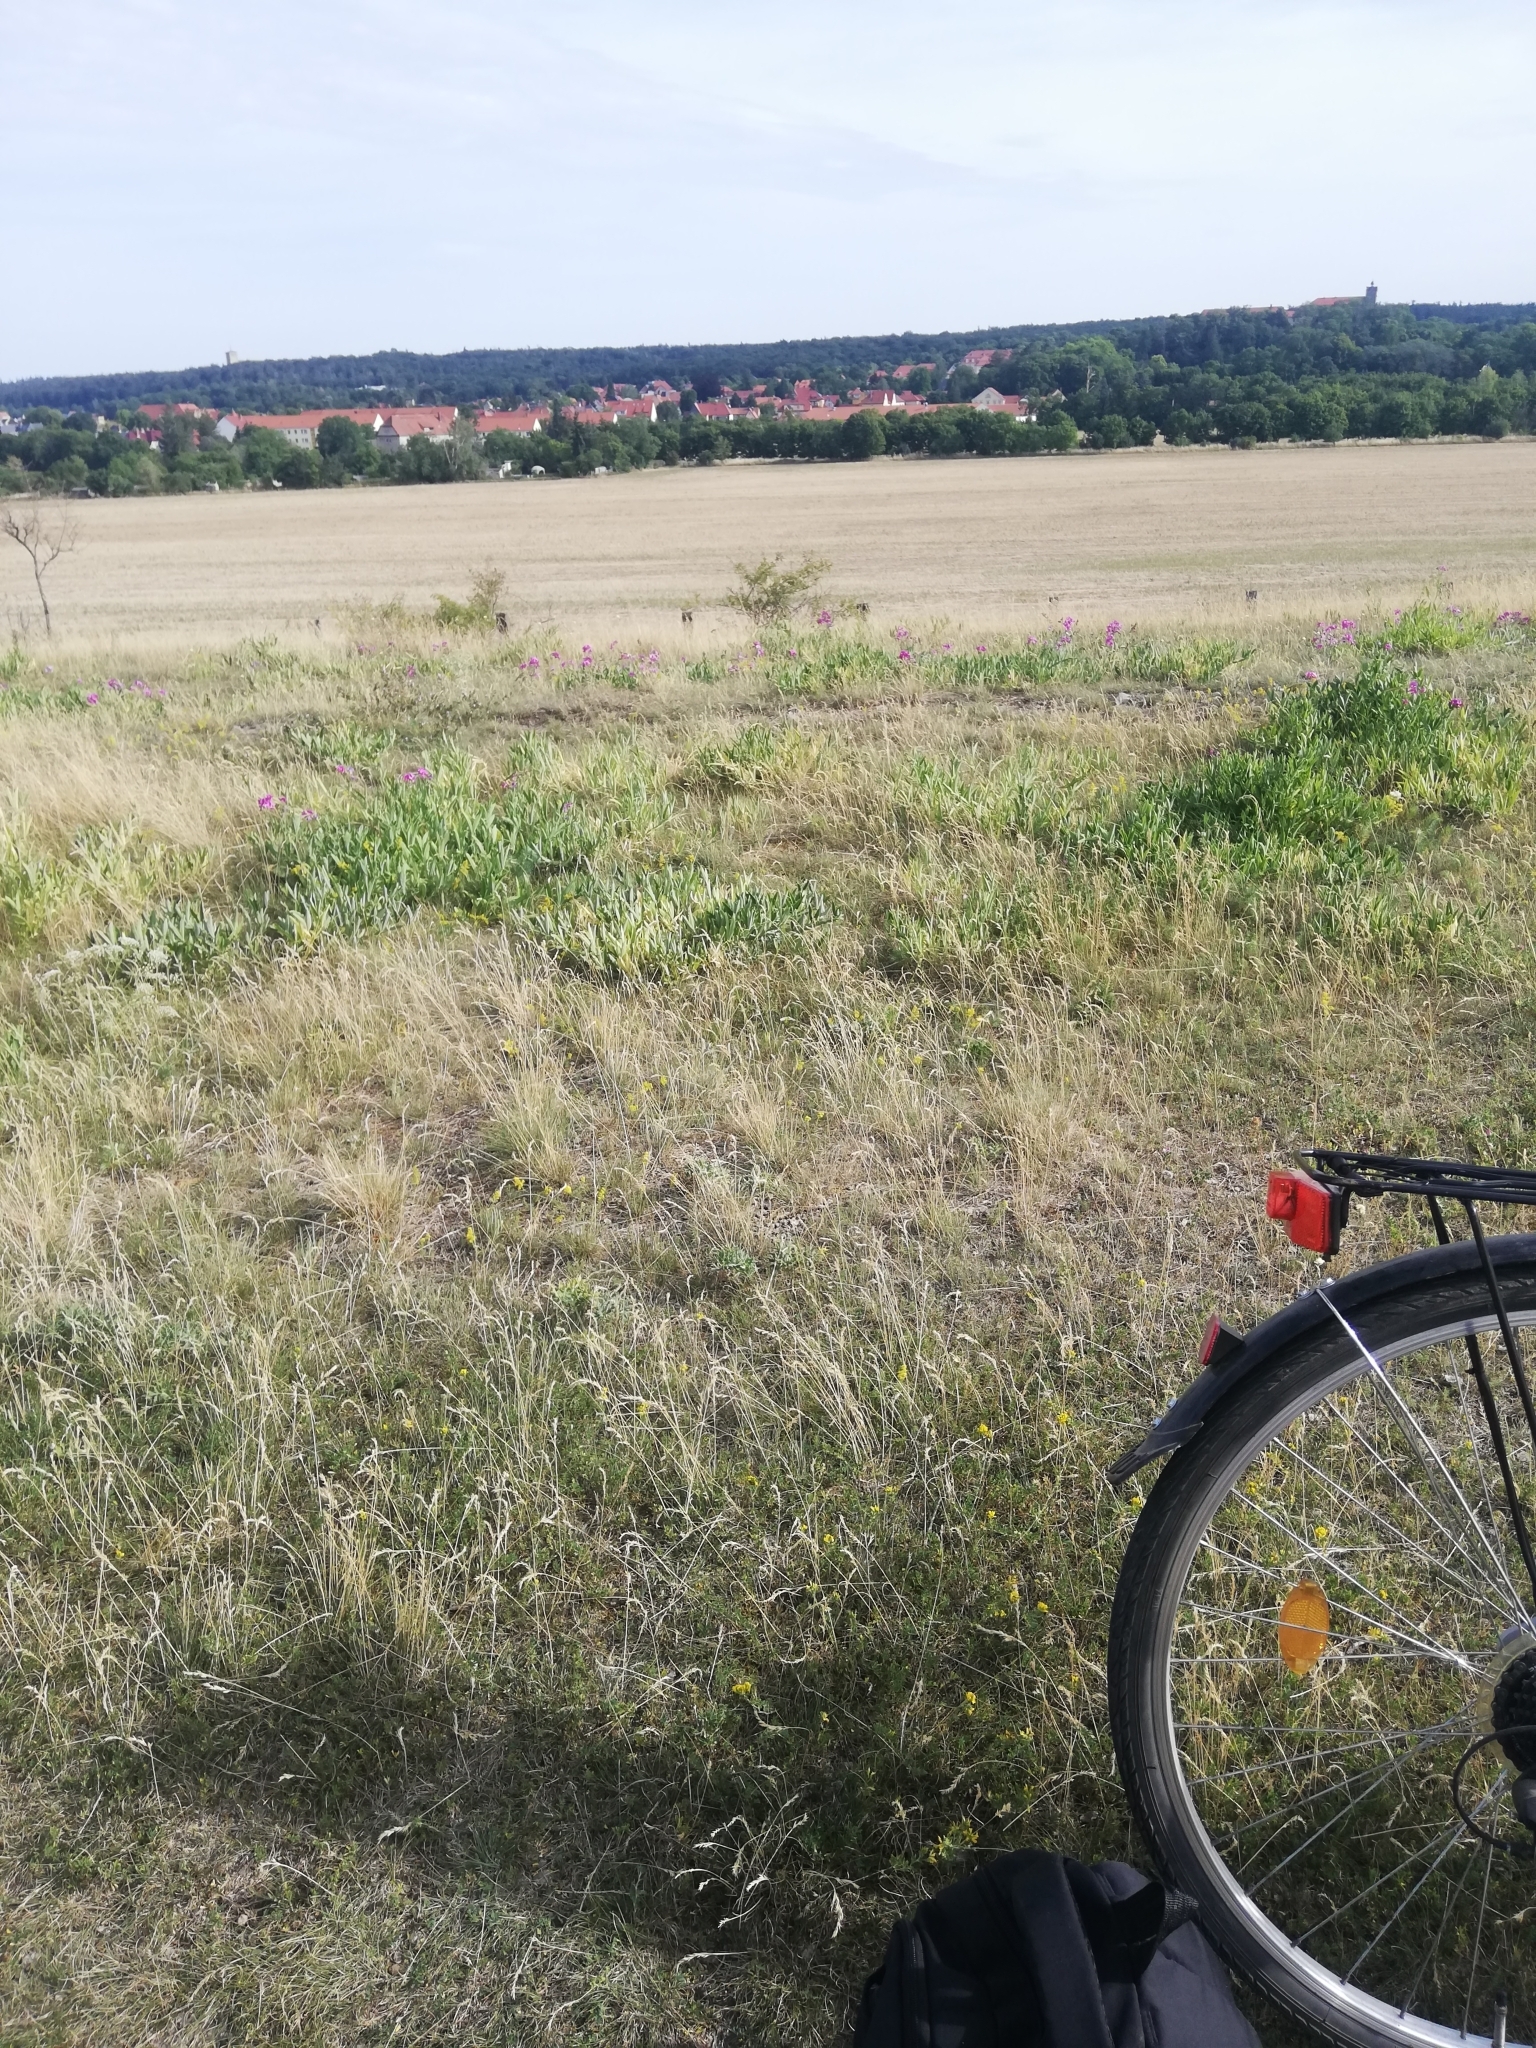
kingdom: Plantae
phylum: Tracheophyta
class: Magnoliopsida
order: Fabales
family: Fabaceae
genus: Medicago
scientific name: Medicago falcata
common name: Sickle medick
